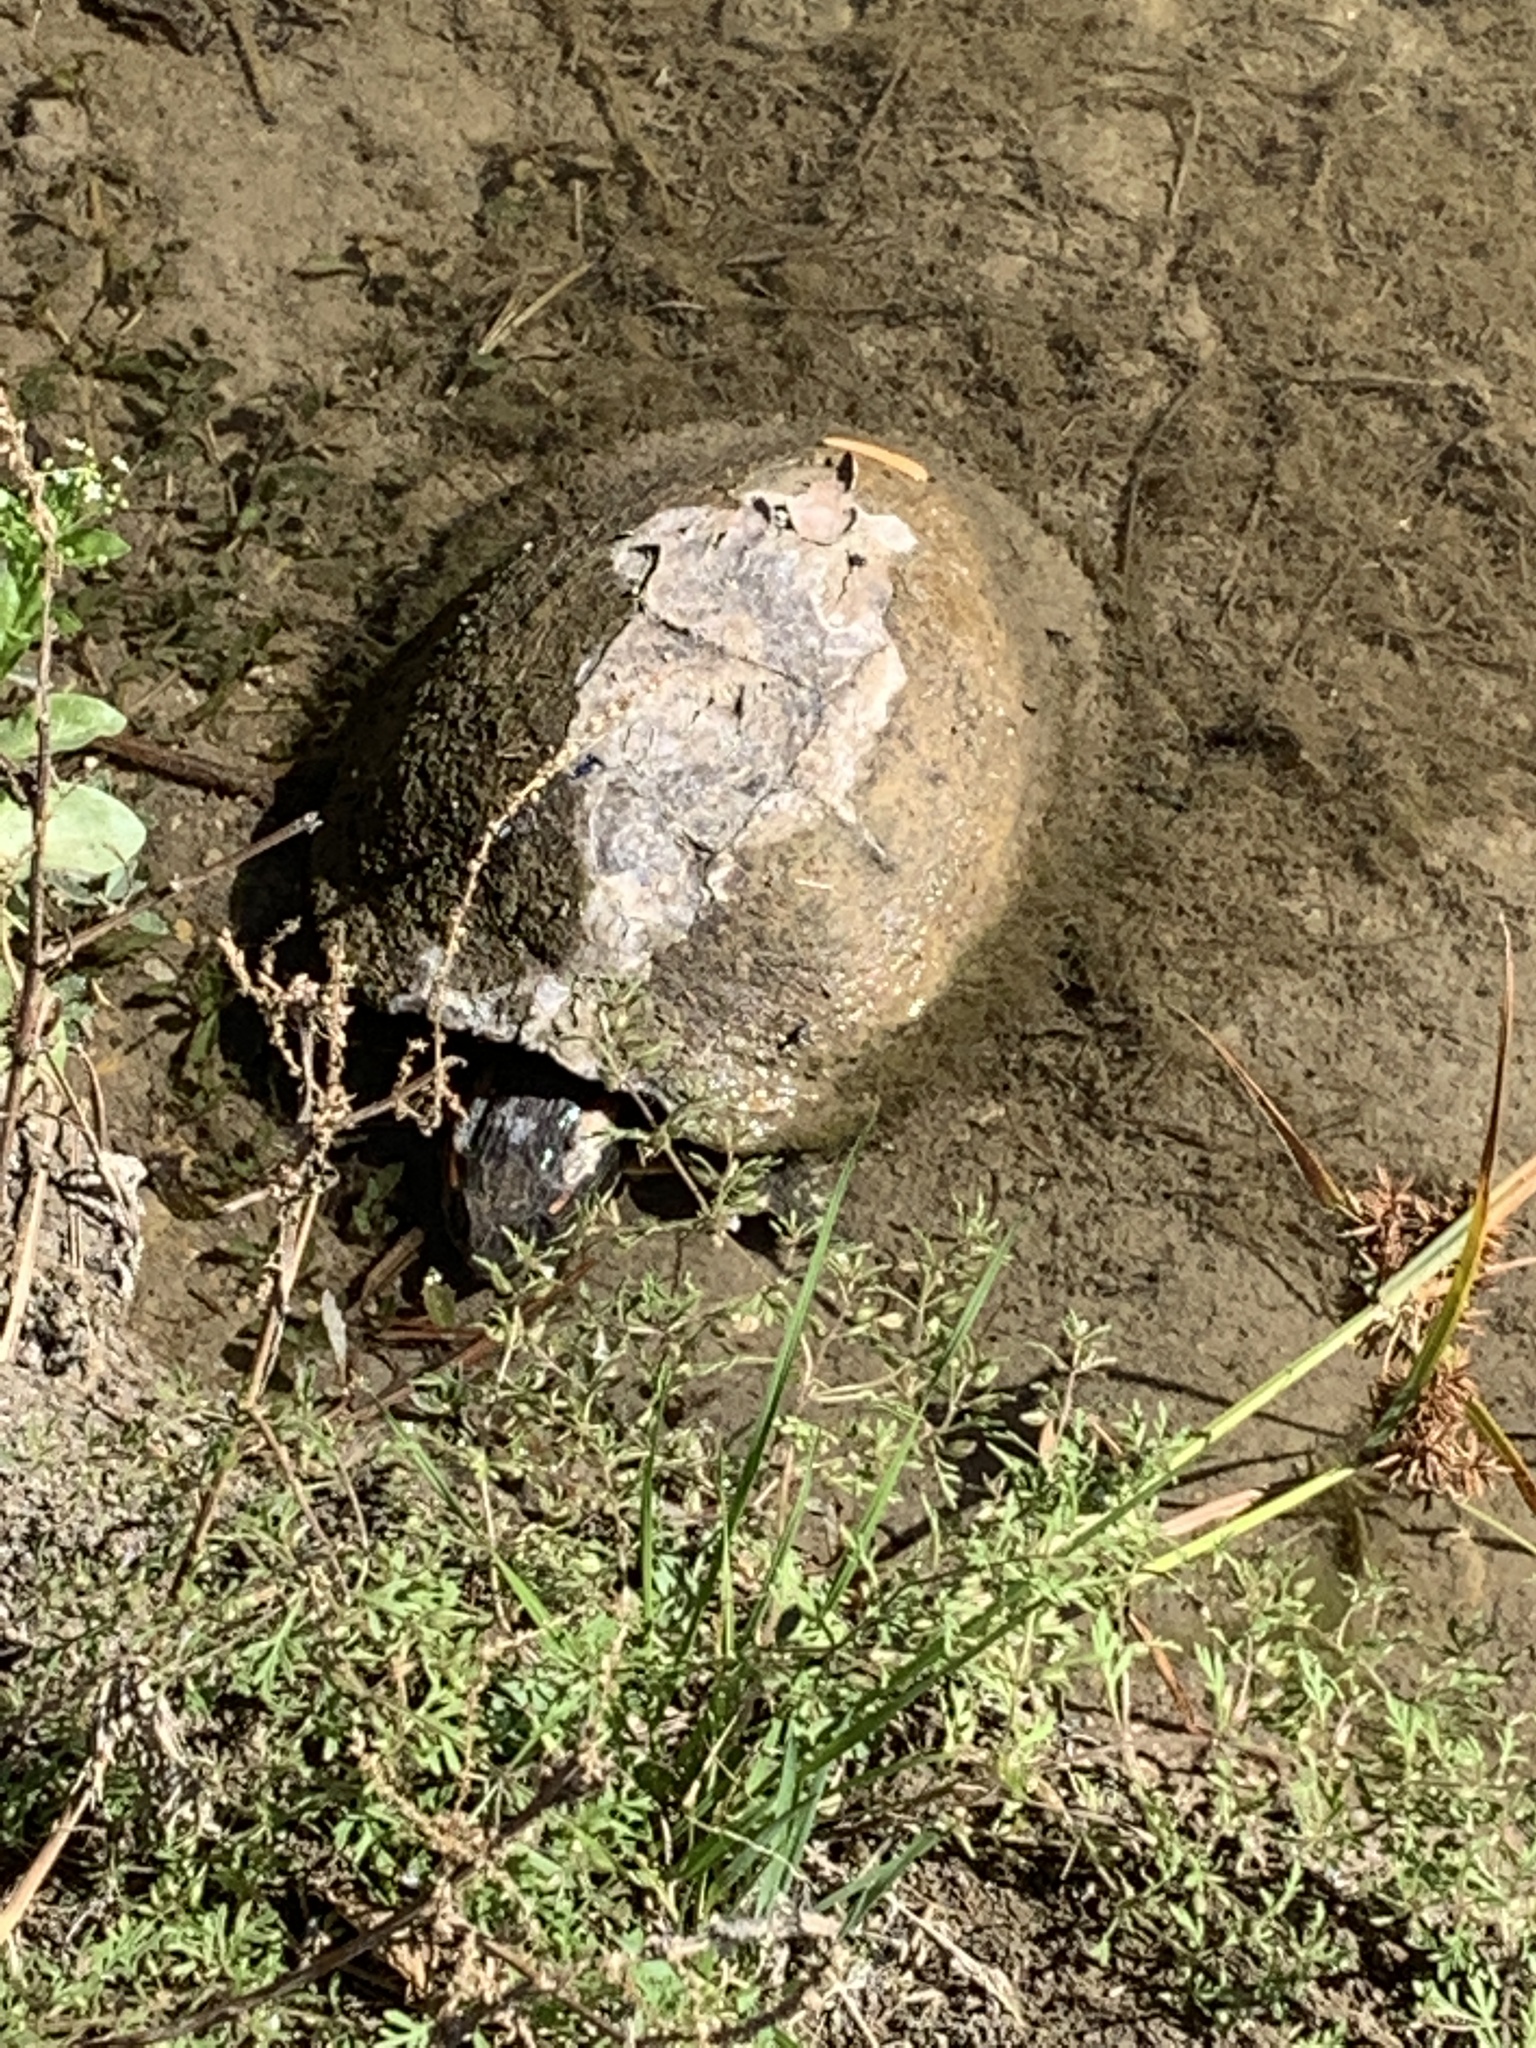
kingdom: Animalia
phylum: Chordata
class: Testudines
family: Emydidae
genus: Trachemys
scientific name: Trachemys scripta
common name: Slider
